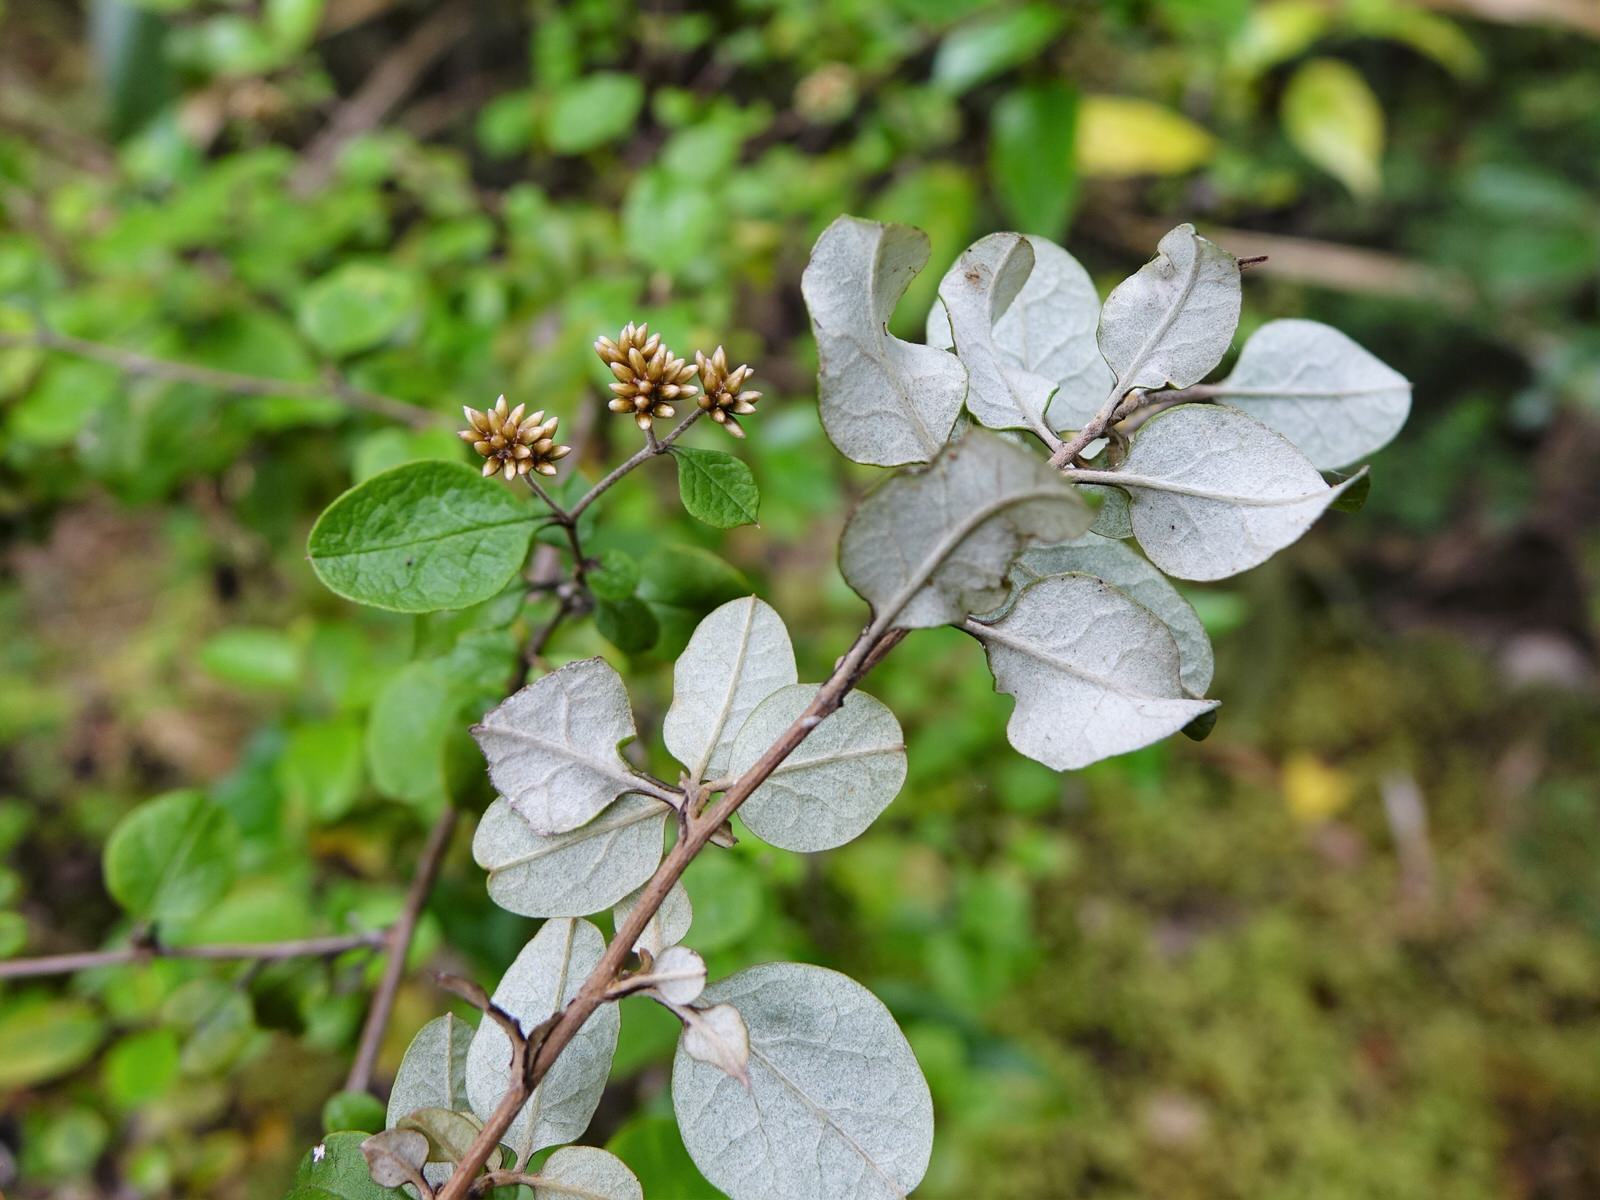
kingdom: Plantae
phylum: Tracheophyta
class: Magnoliopsida
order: Asterales
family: Asteraceae
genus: Ozothamnus
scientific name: Ozothamnus glomeratus
